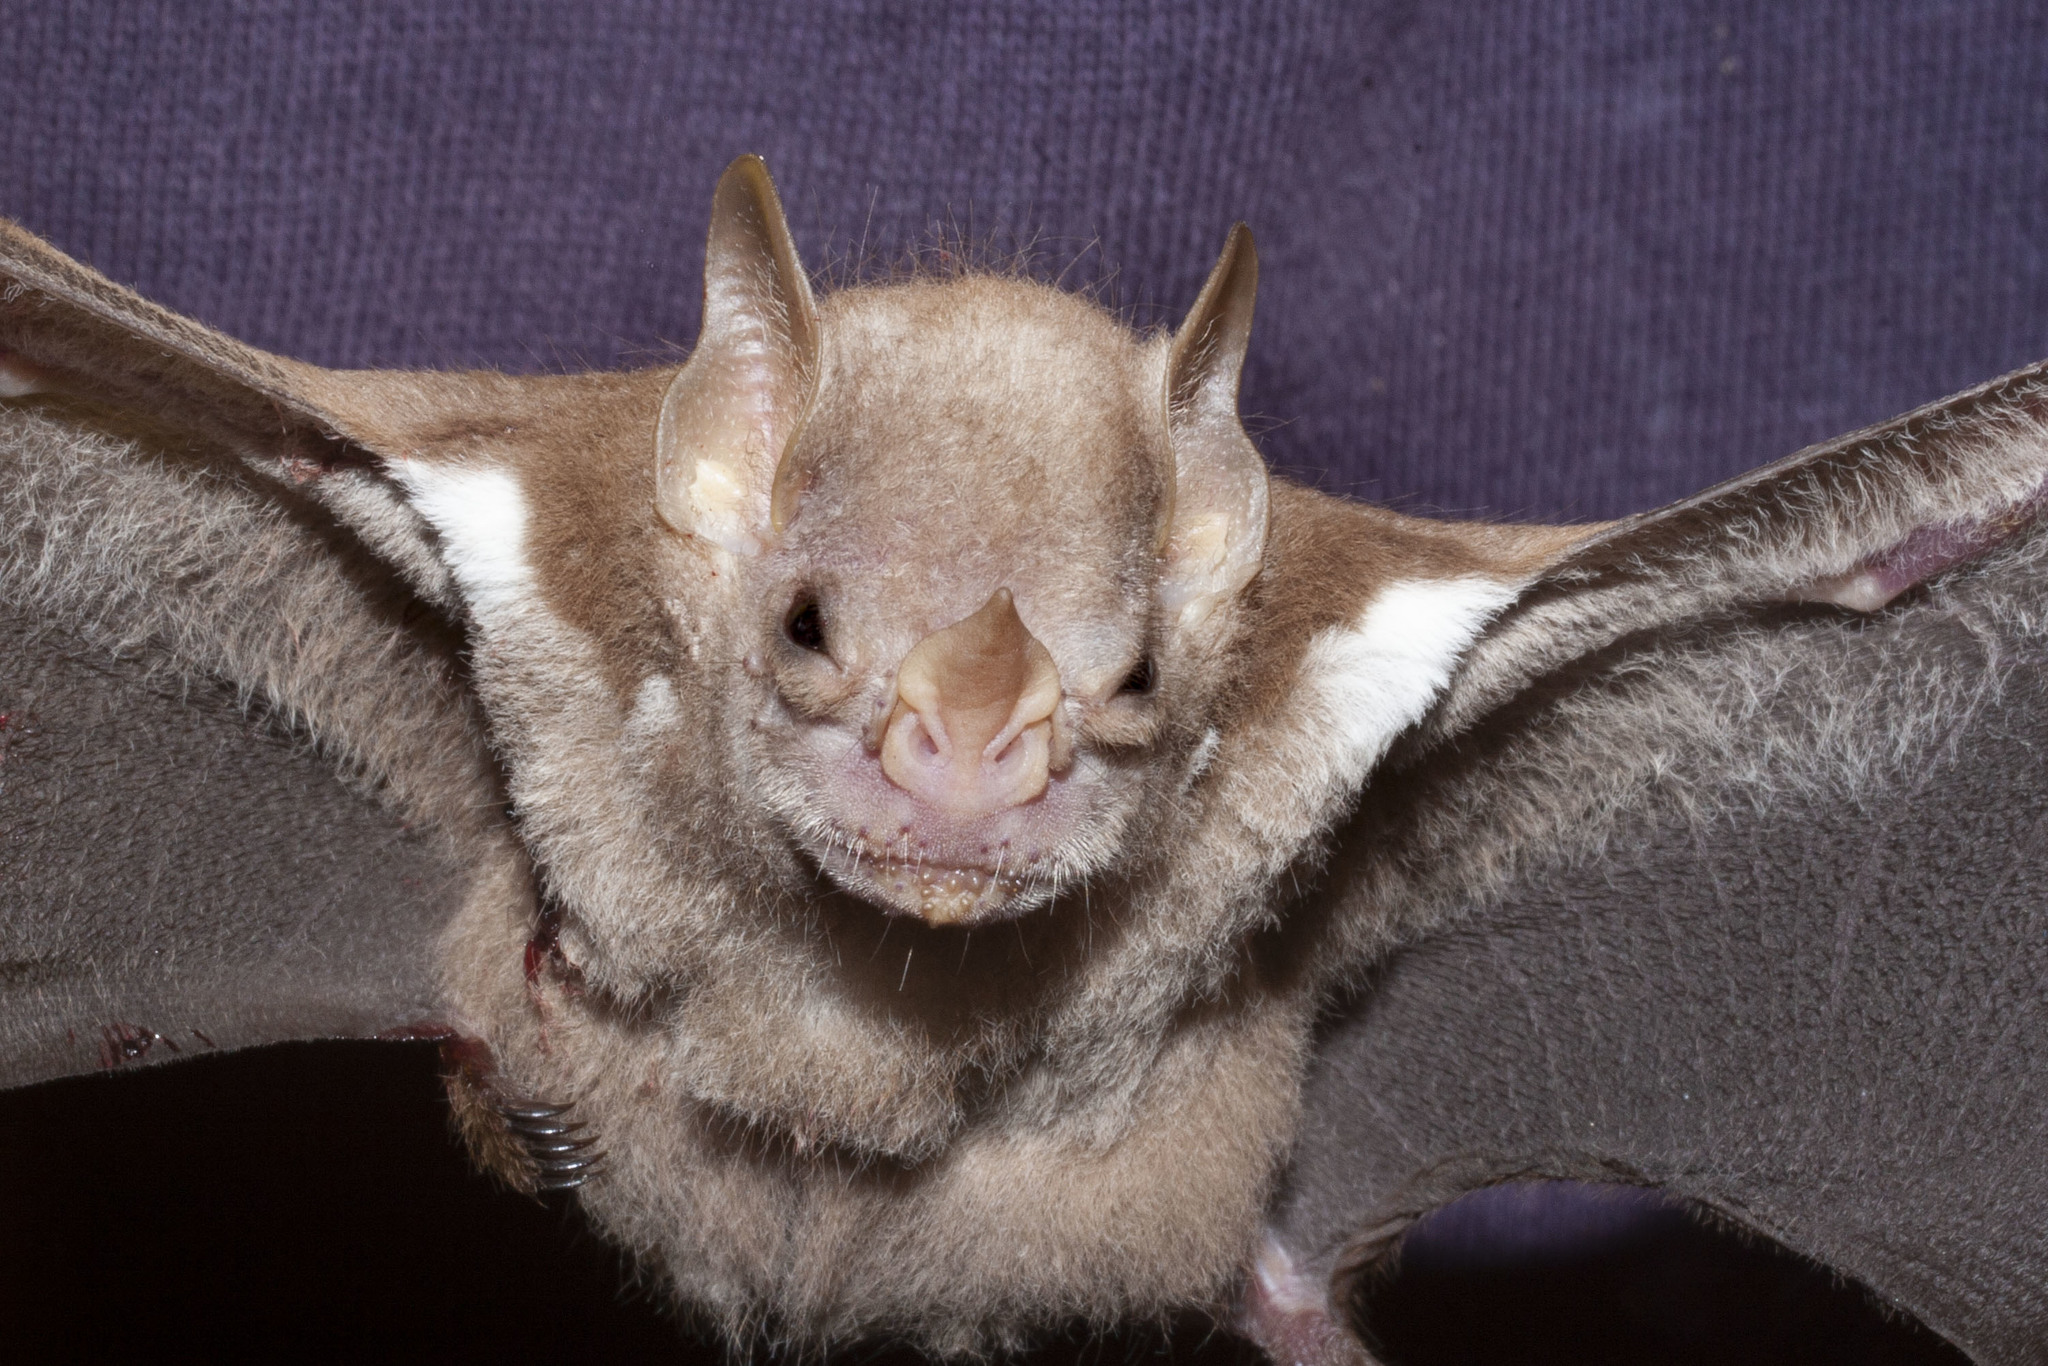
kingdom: Animalia
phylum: Chordata
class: Mammalia
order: Chiroptera
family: Phyllostomidae
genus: Ametrida
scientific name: Ametrida centurio
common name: Little white-shouldered bat
